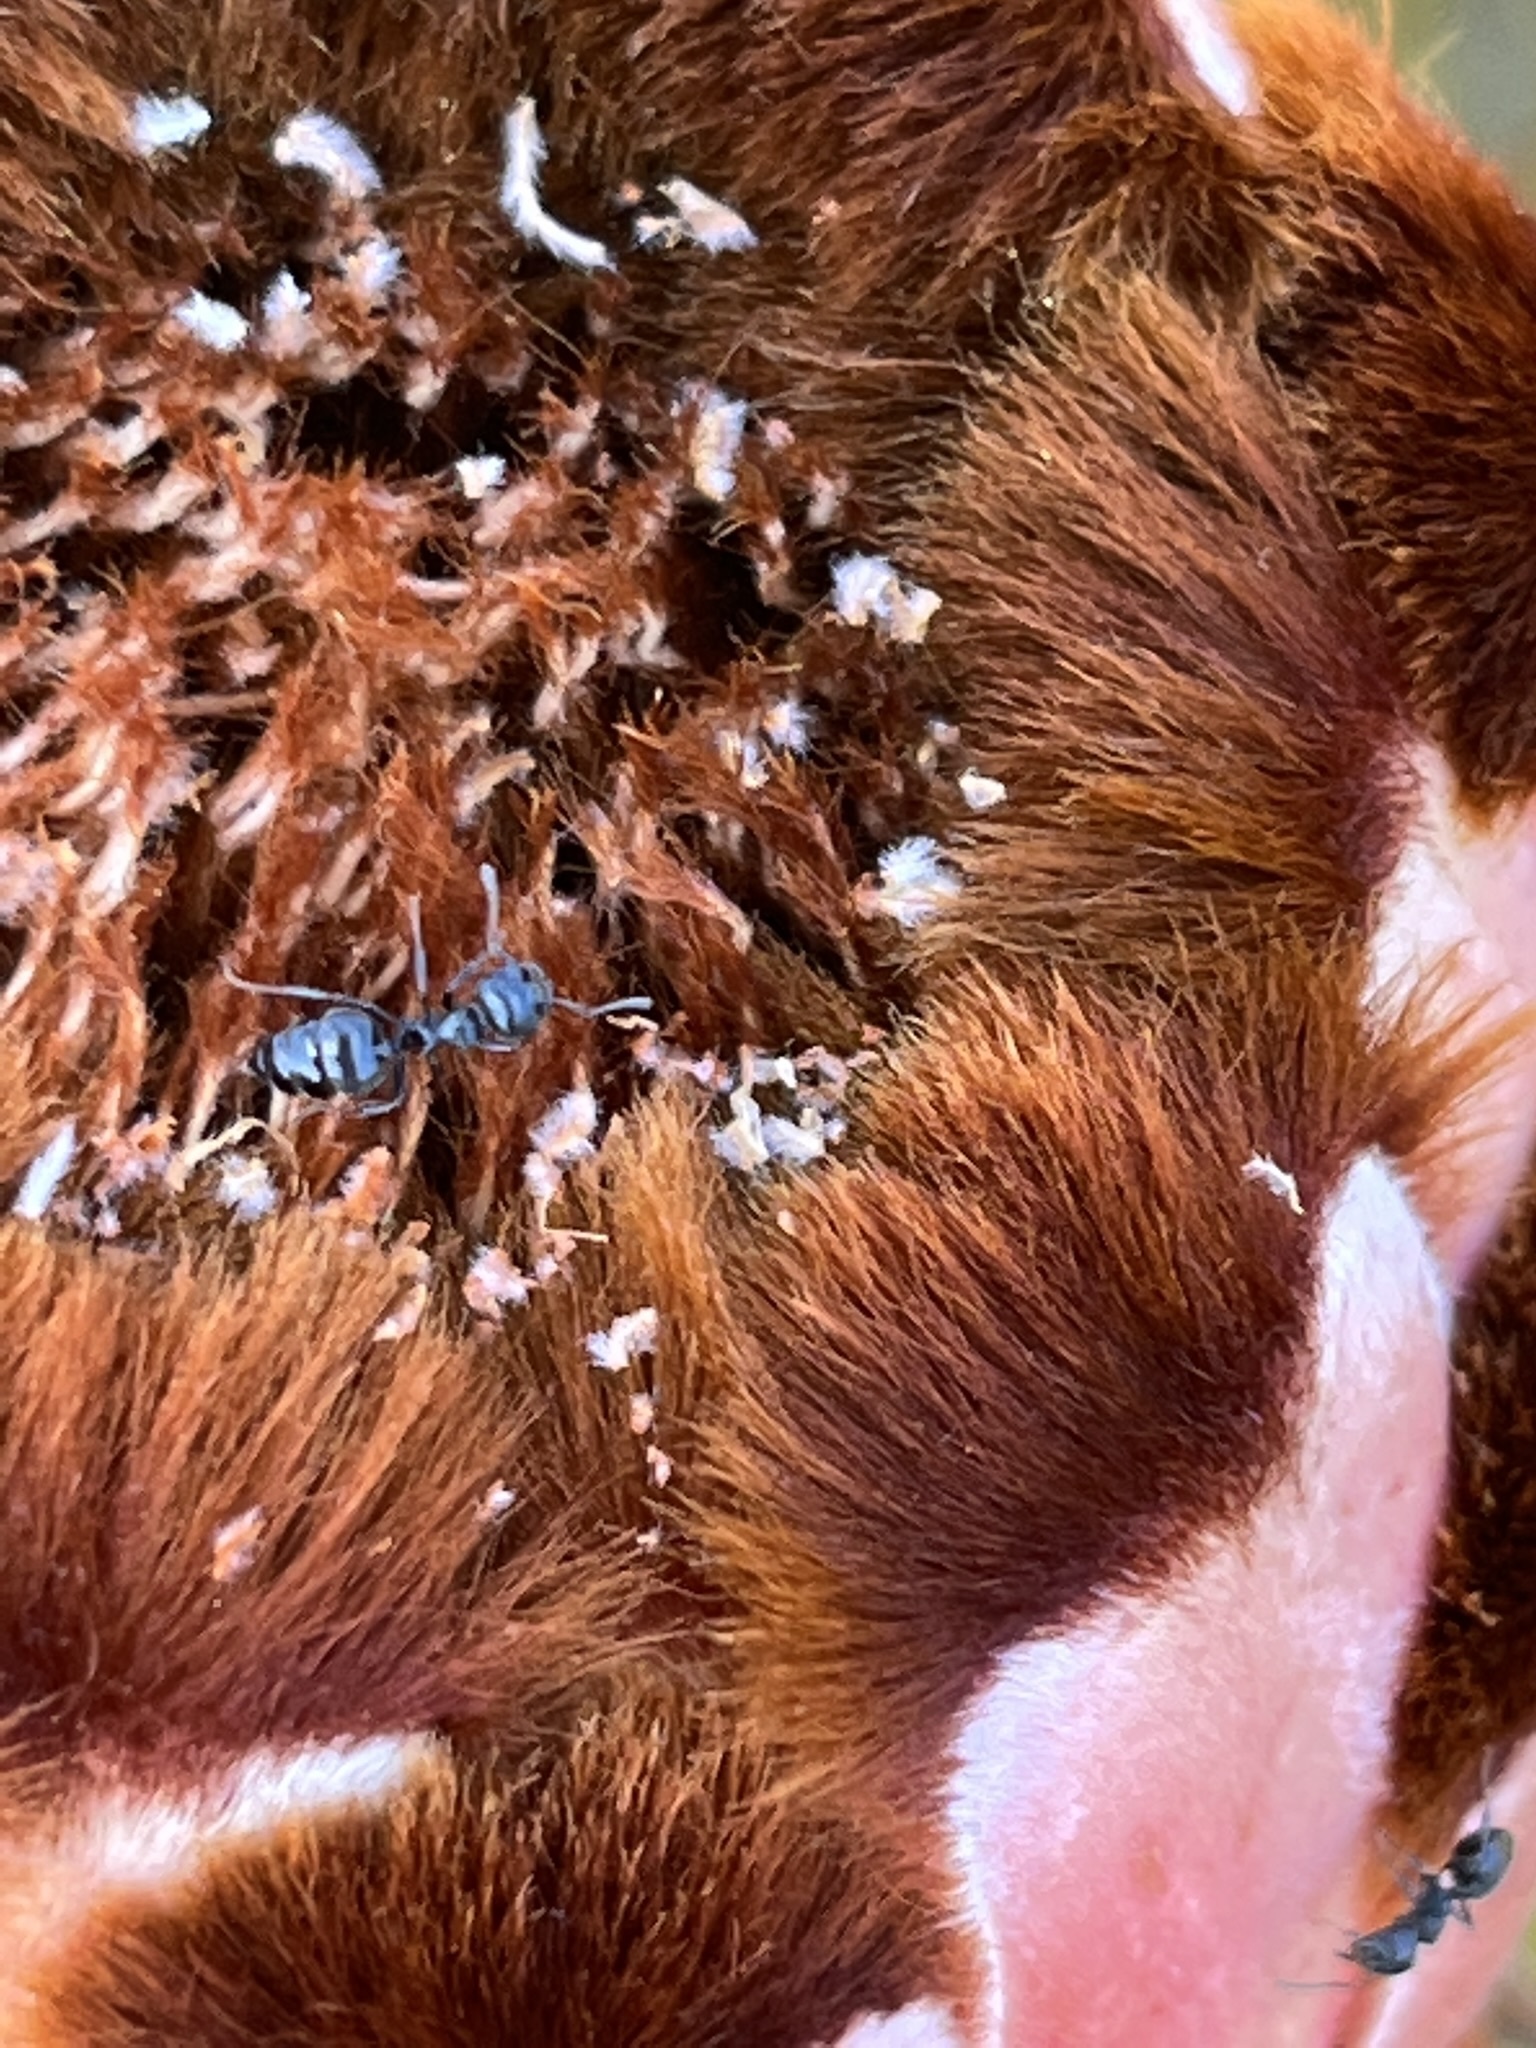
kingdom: Animalia
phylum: Arthropoda
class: Insecta
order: Hymenoptera
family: Formicidae
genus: Crematogaster
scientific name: Crematogaster peringueyi
